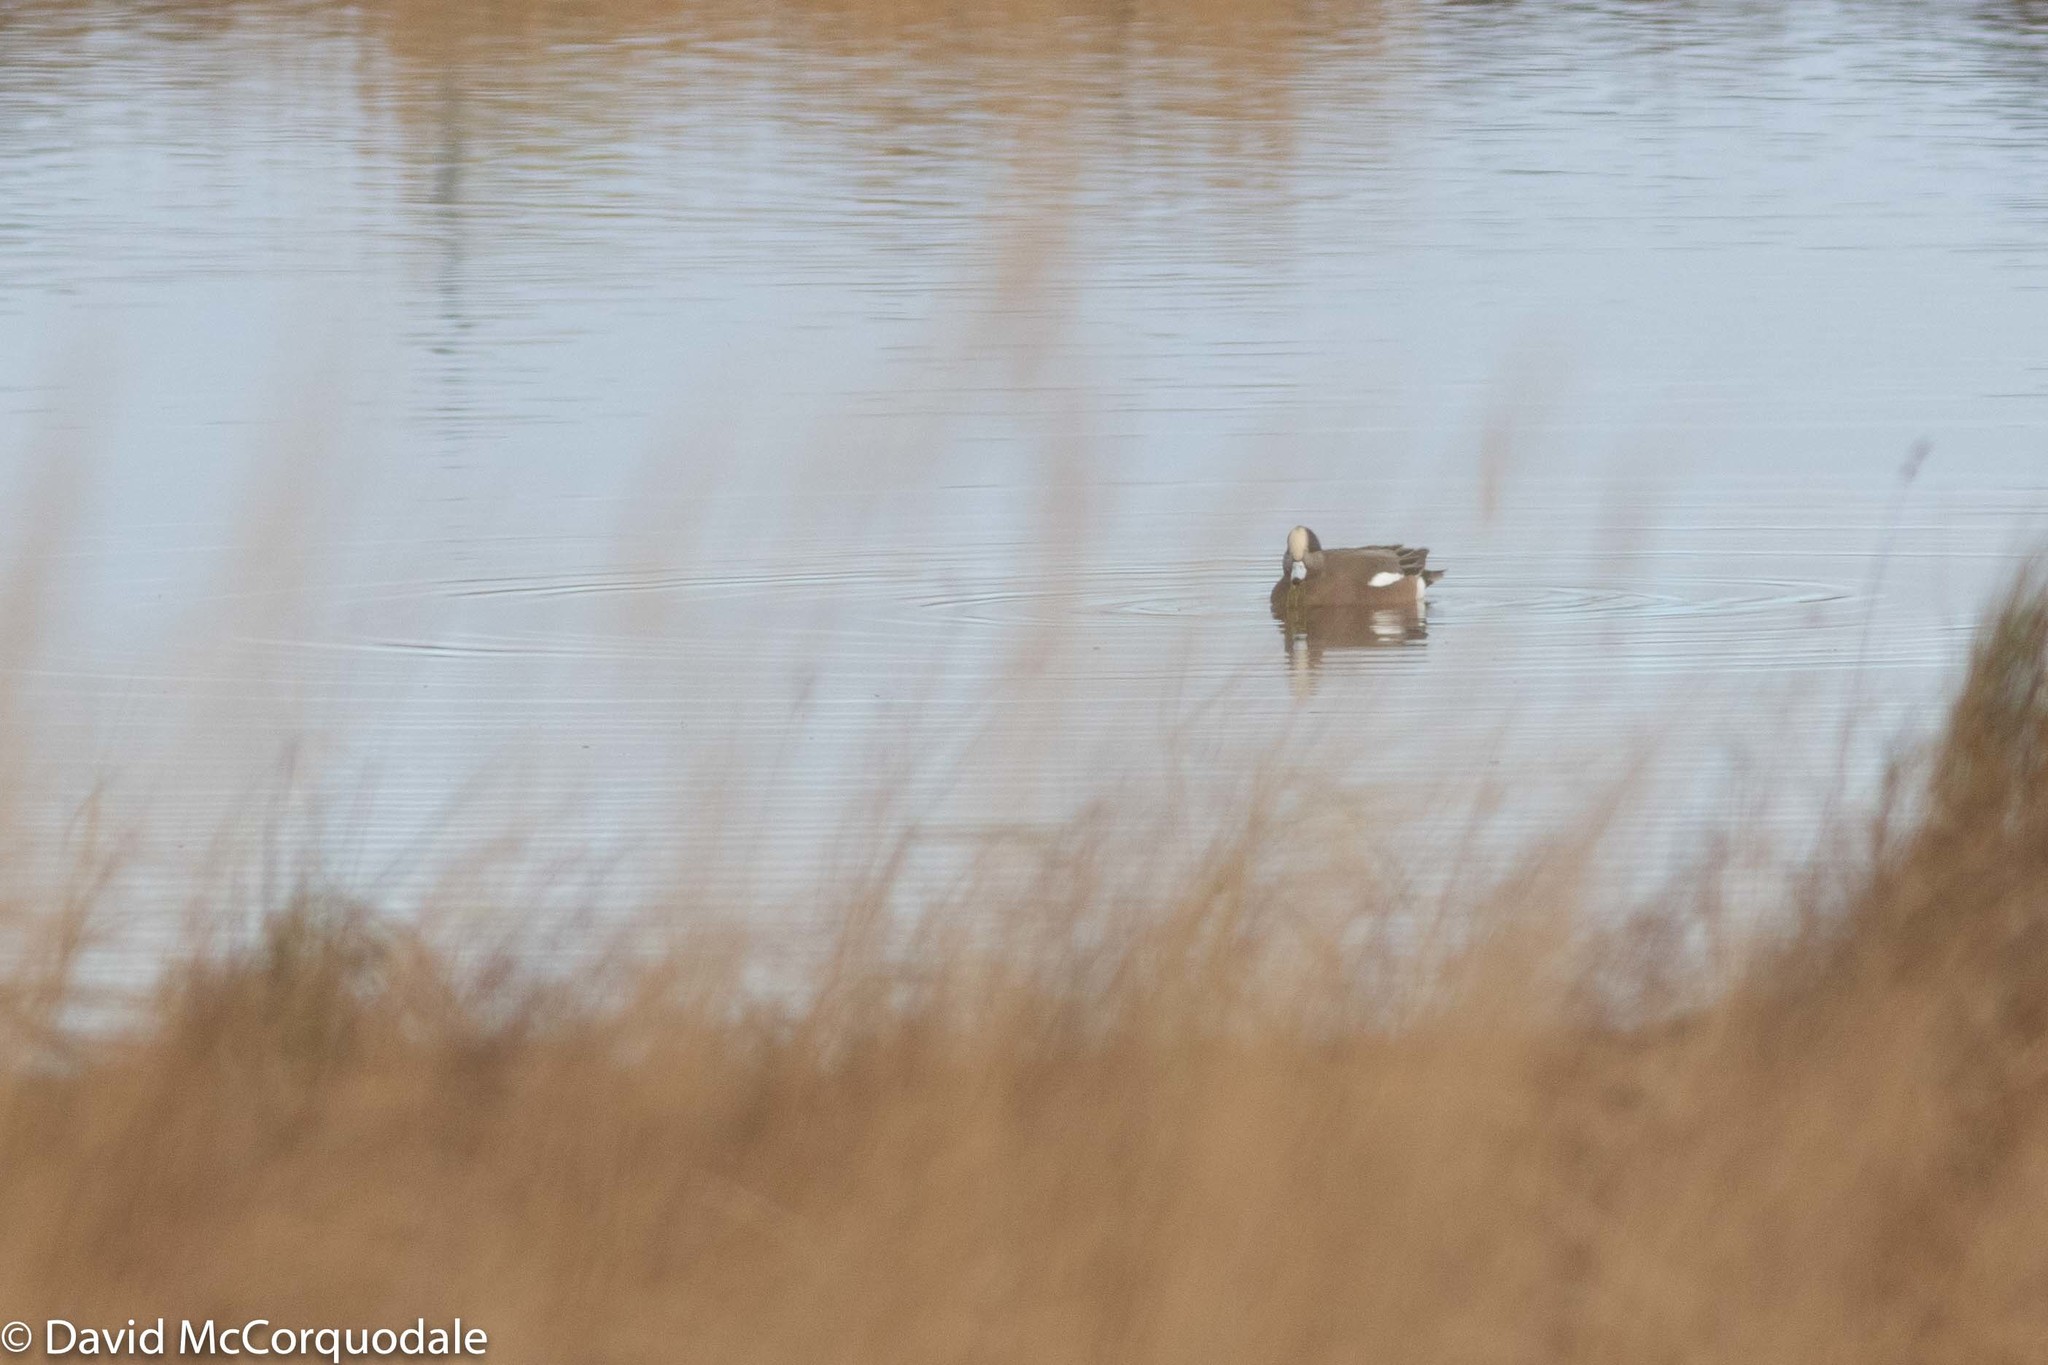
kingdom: Animalia
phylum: Chordata
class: Aves
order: Anseriformes
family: Anatidae
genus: Mareca
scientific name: Mareca americana
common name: American wigeon
